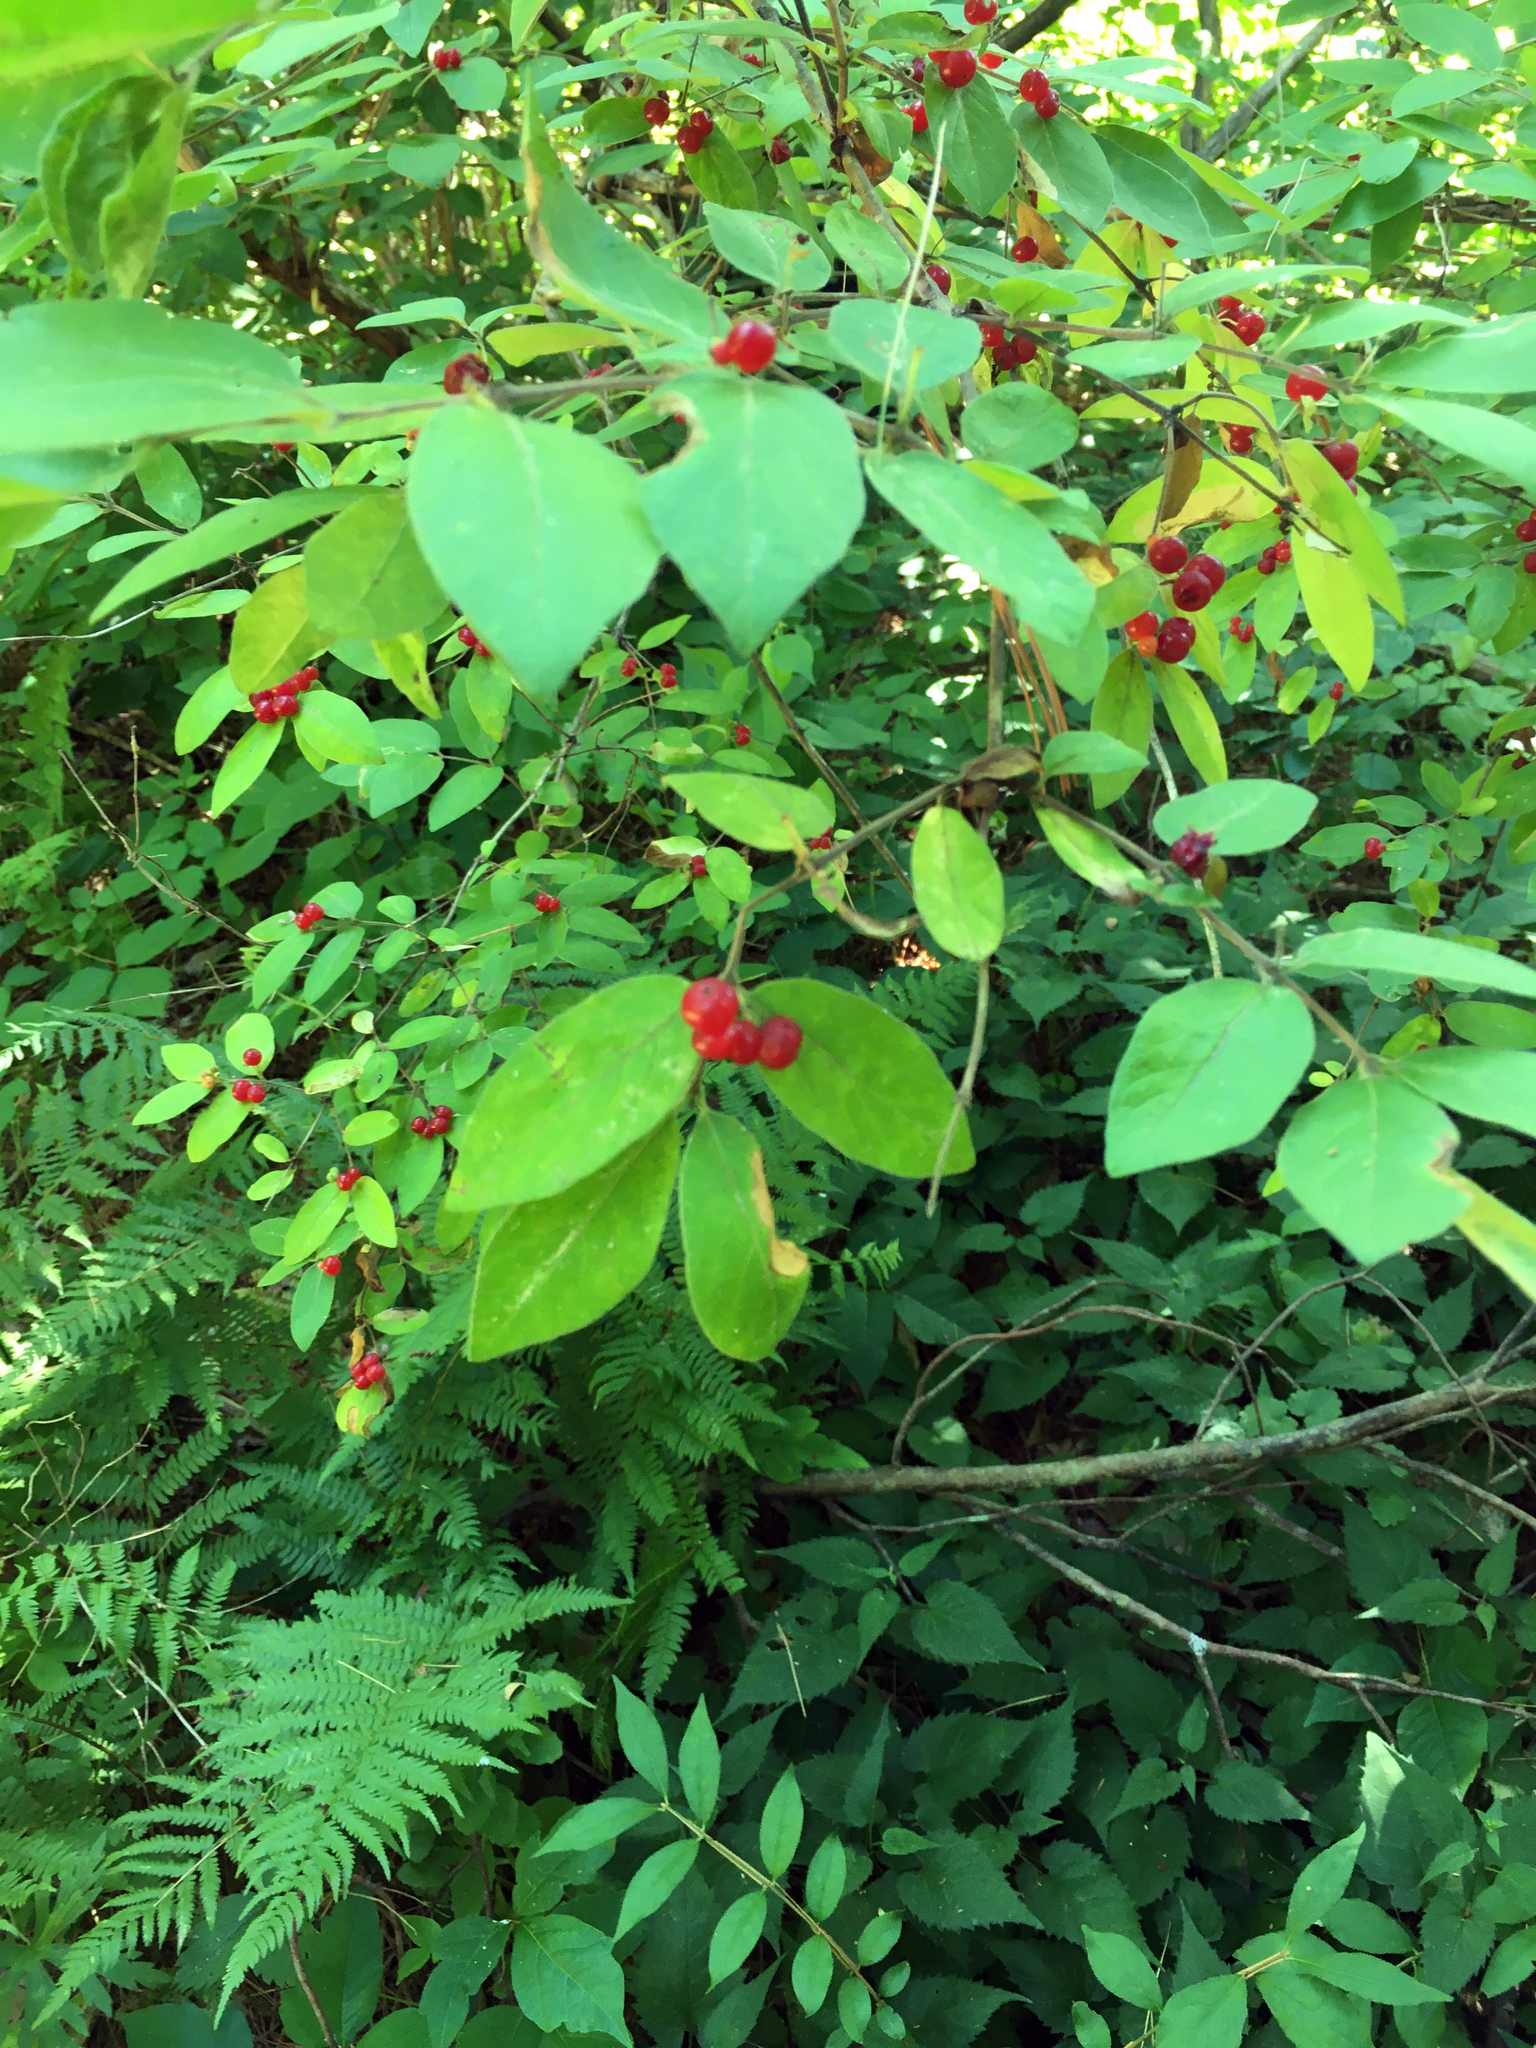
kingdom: Plantae
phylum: Tracheophyta
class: Magnoliopsida
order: Dipsacales
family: Caprifoliaceae
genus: Lonicera
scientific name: Lonicera morrowii
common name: Morrow's honeysuckle
